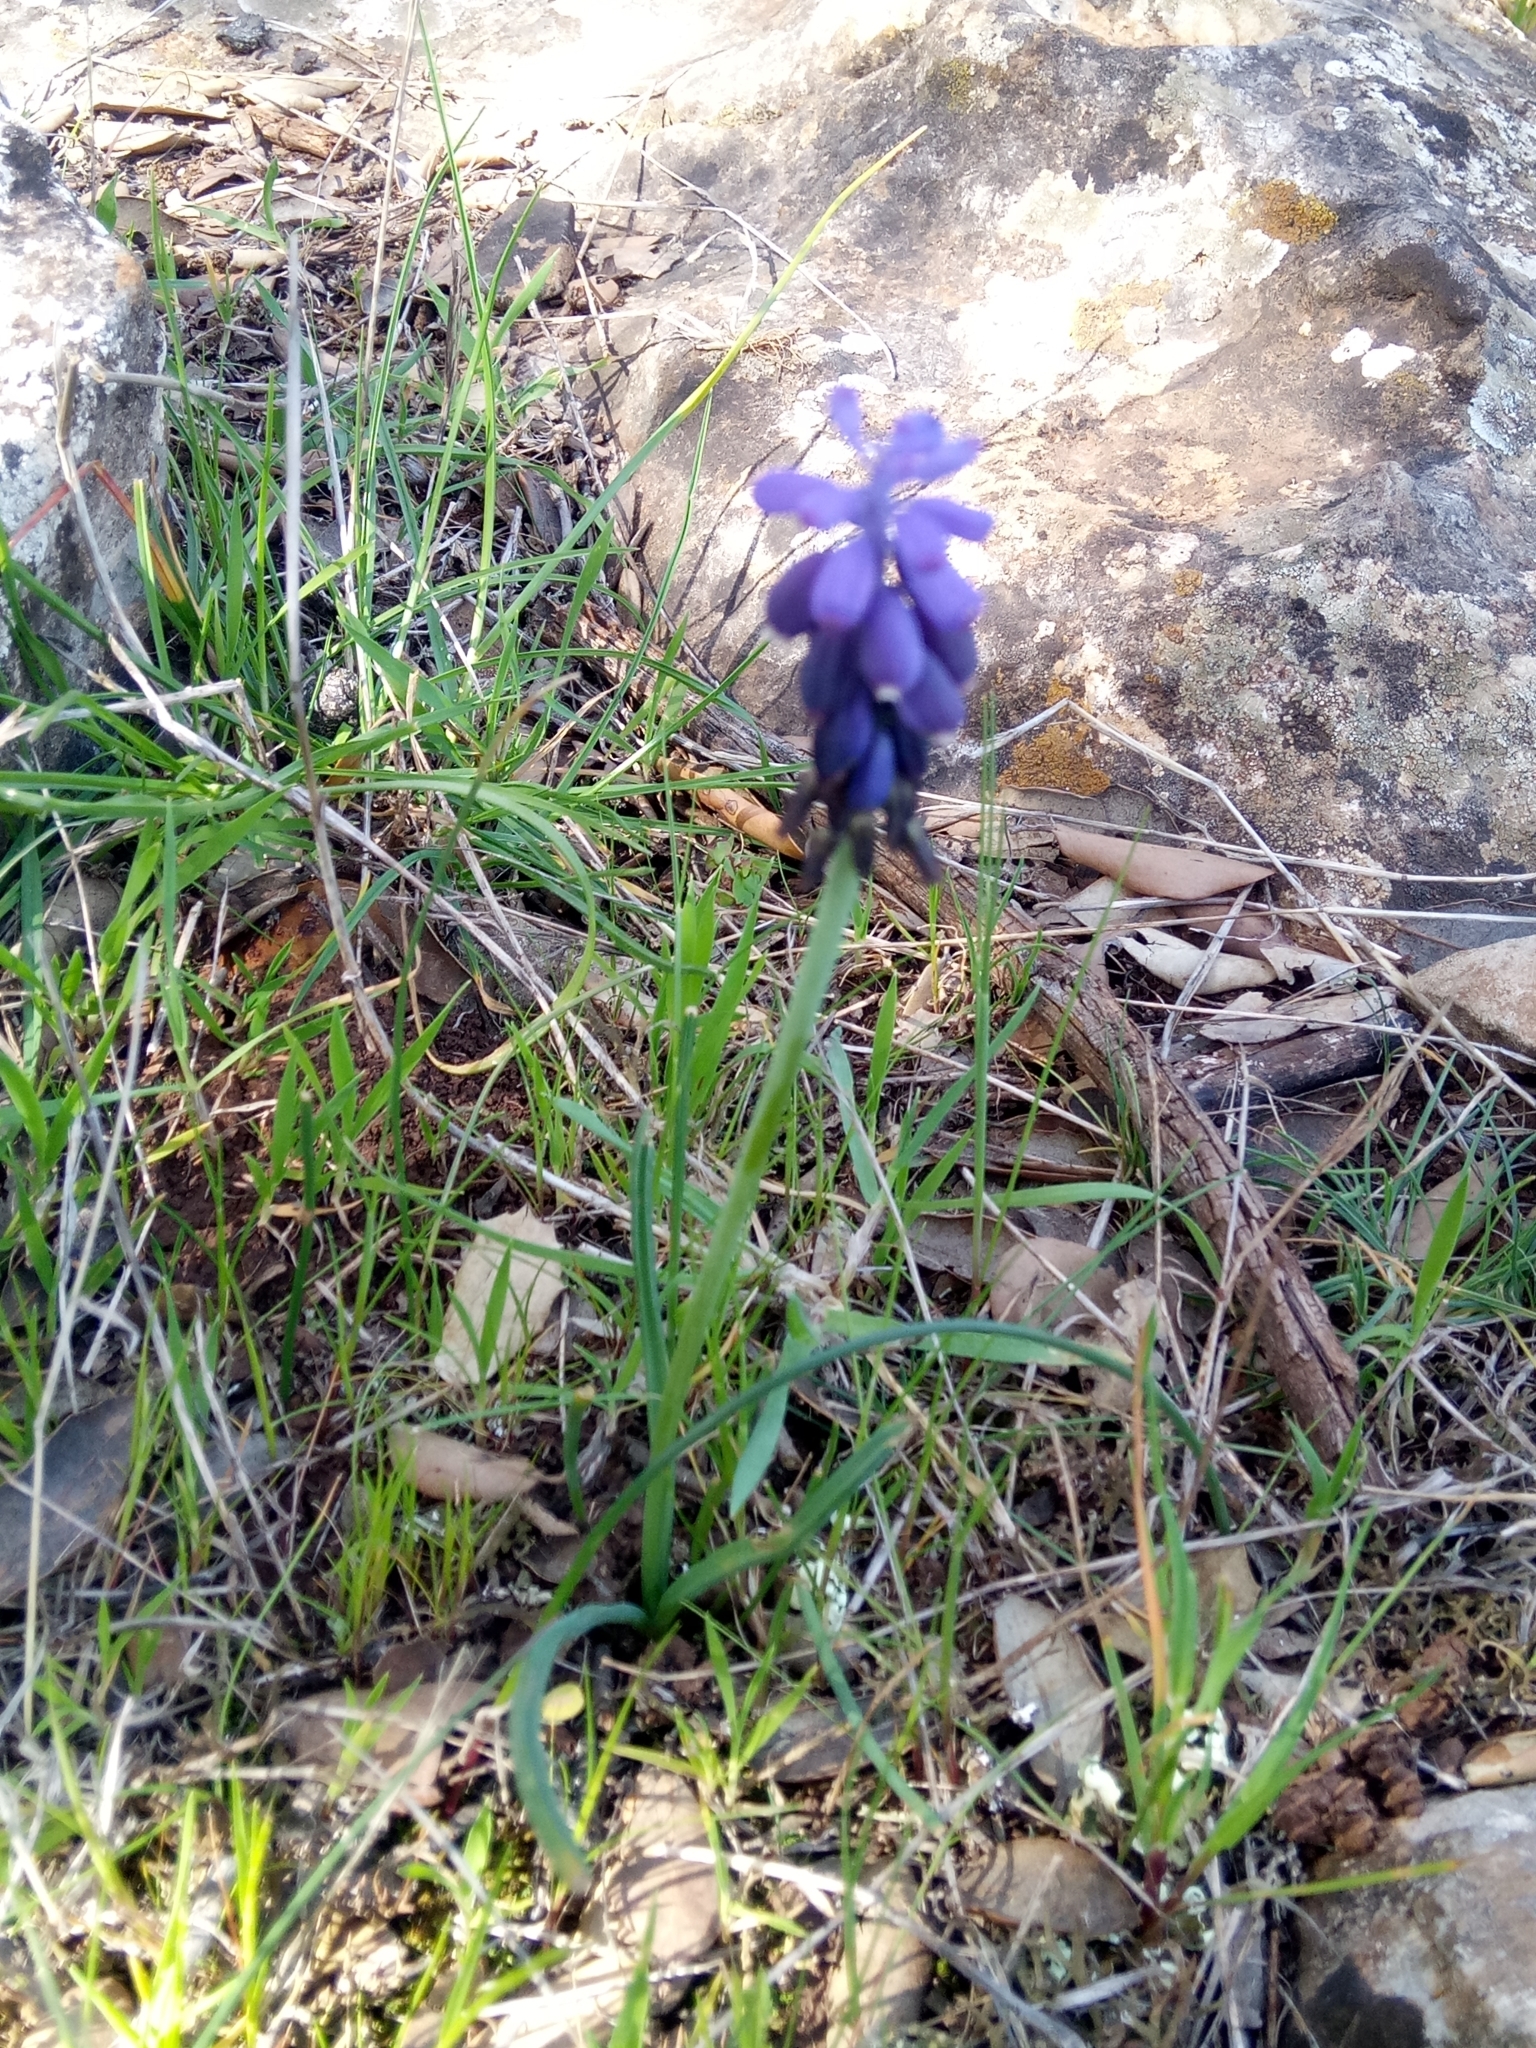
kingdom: Plantae
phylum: Tracheophyta
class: Liliopsida
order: Asparagales
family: Asparagaceae
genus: Muscari
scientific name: Muscari baeticum
